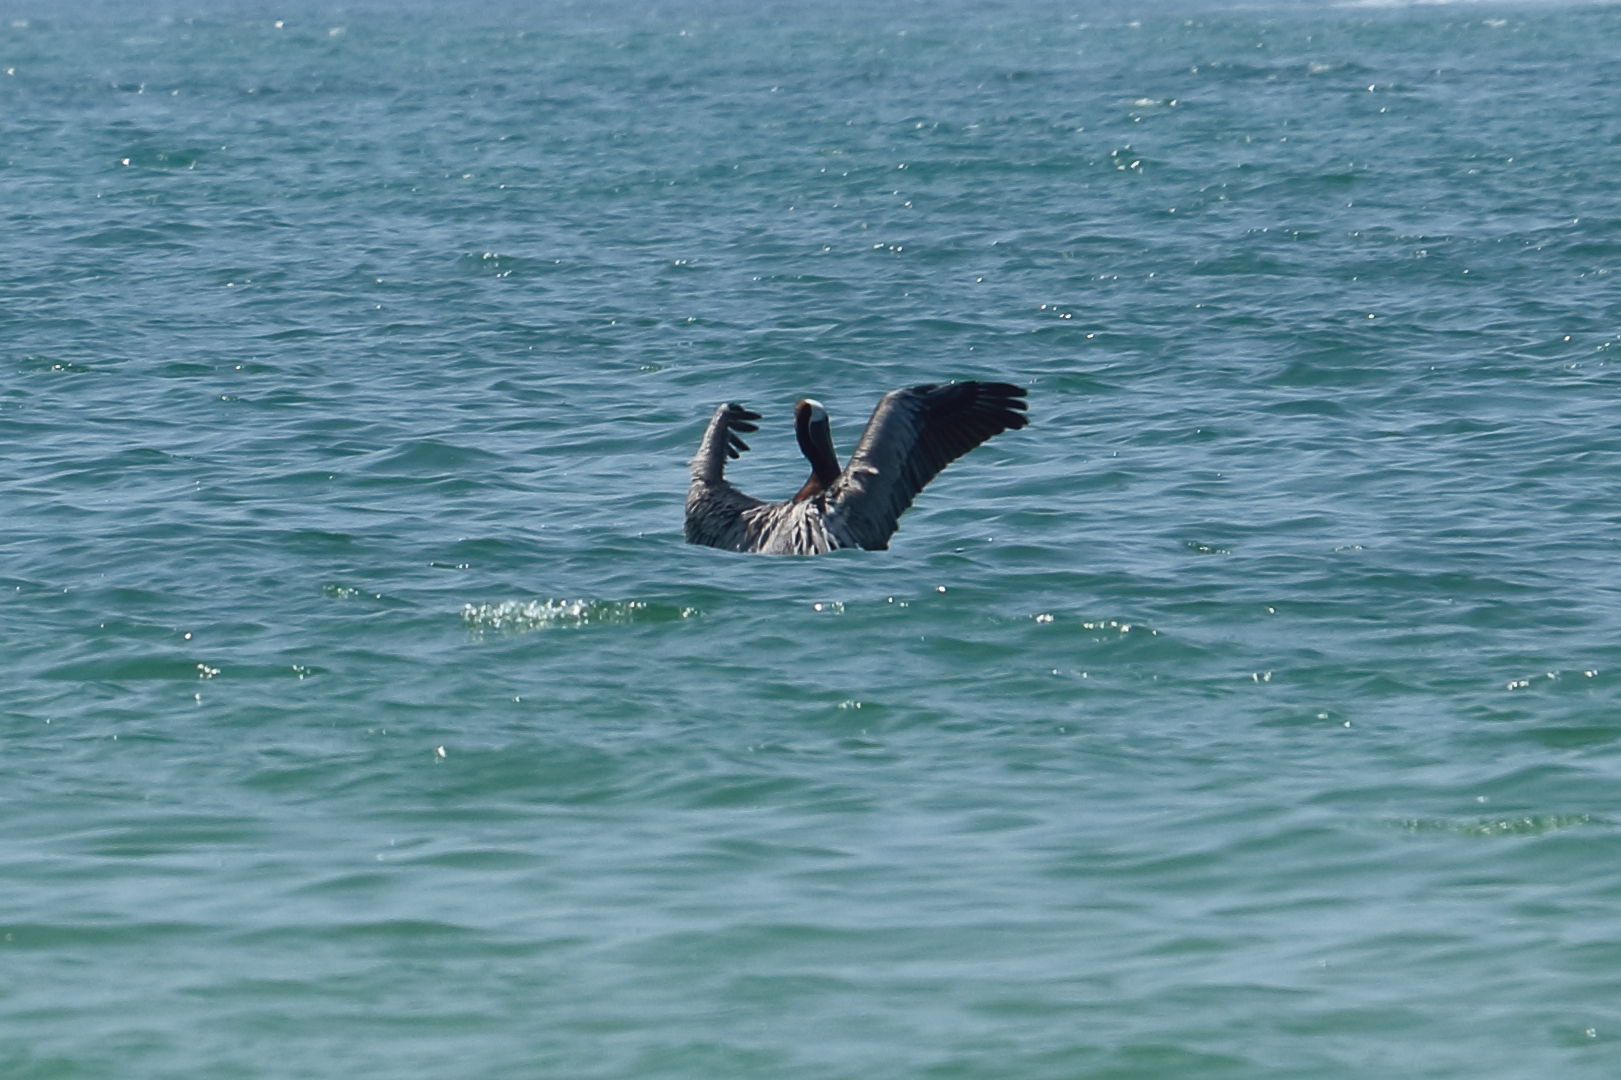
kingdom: Animalia
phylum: Chordata
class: Aves
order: Pelecaniformes
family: Pelecanidae
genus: Pelecanus
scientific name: Pelecanus occidentalis
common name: Brown pelican
